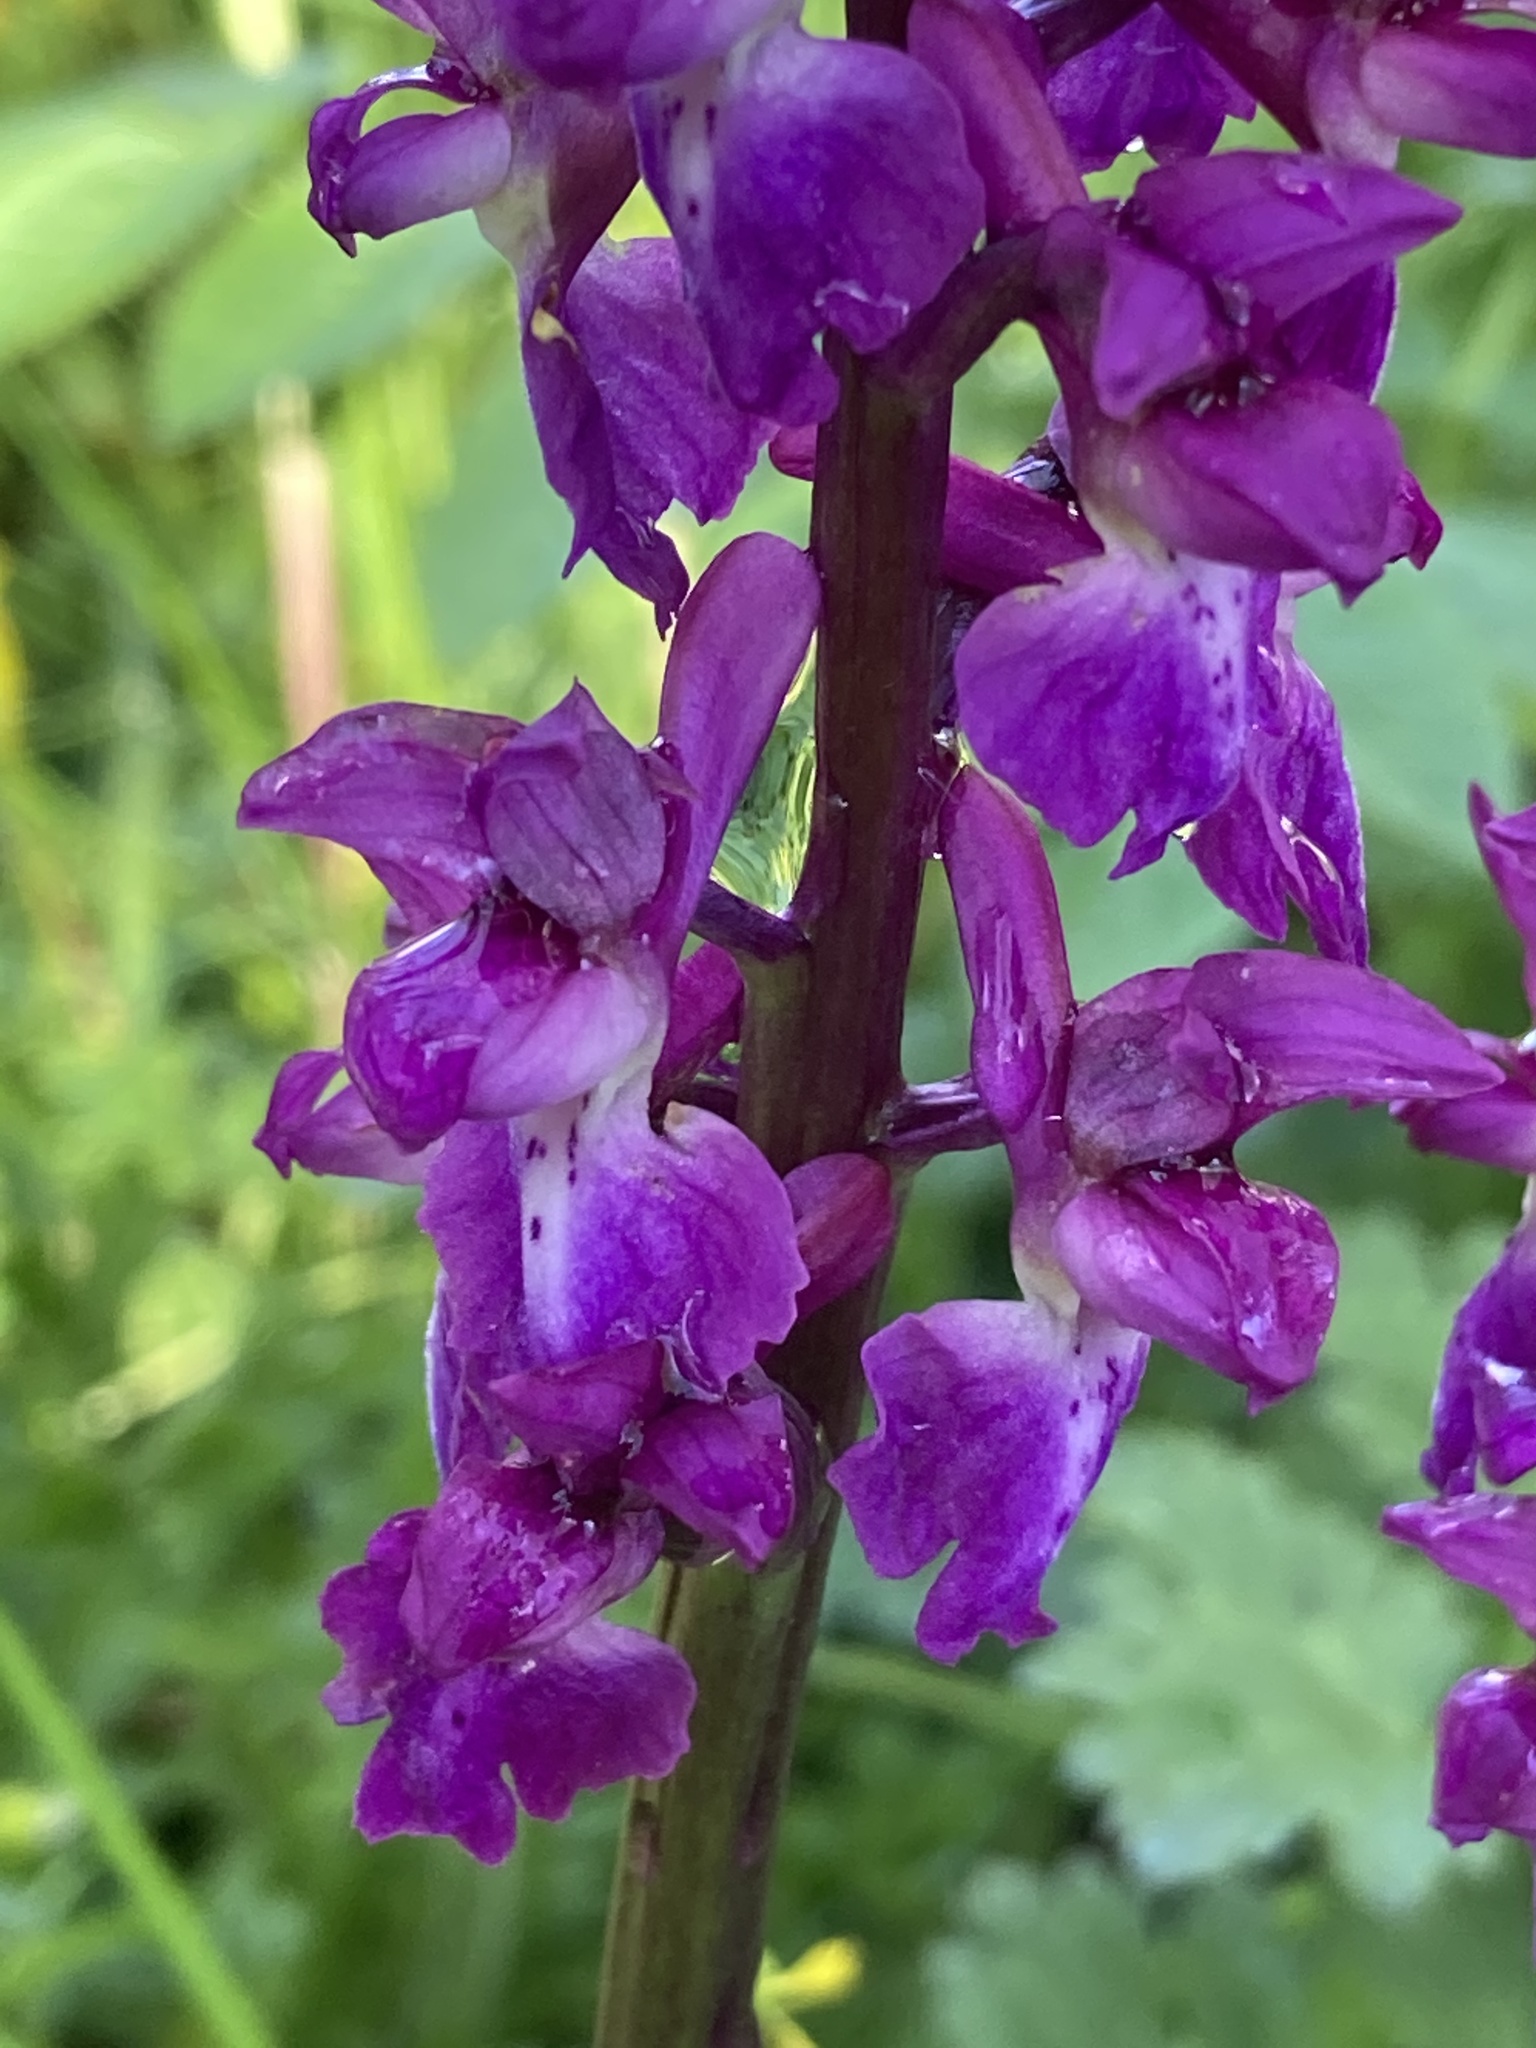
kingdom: Plantae
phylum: Tracheophyta
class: Liliopsida
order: Asparagales
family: Orchidaceae
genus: Orchis
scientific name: Orchis mascula
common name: Early-purple orchid
